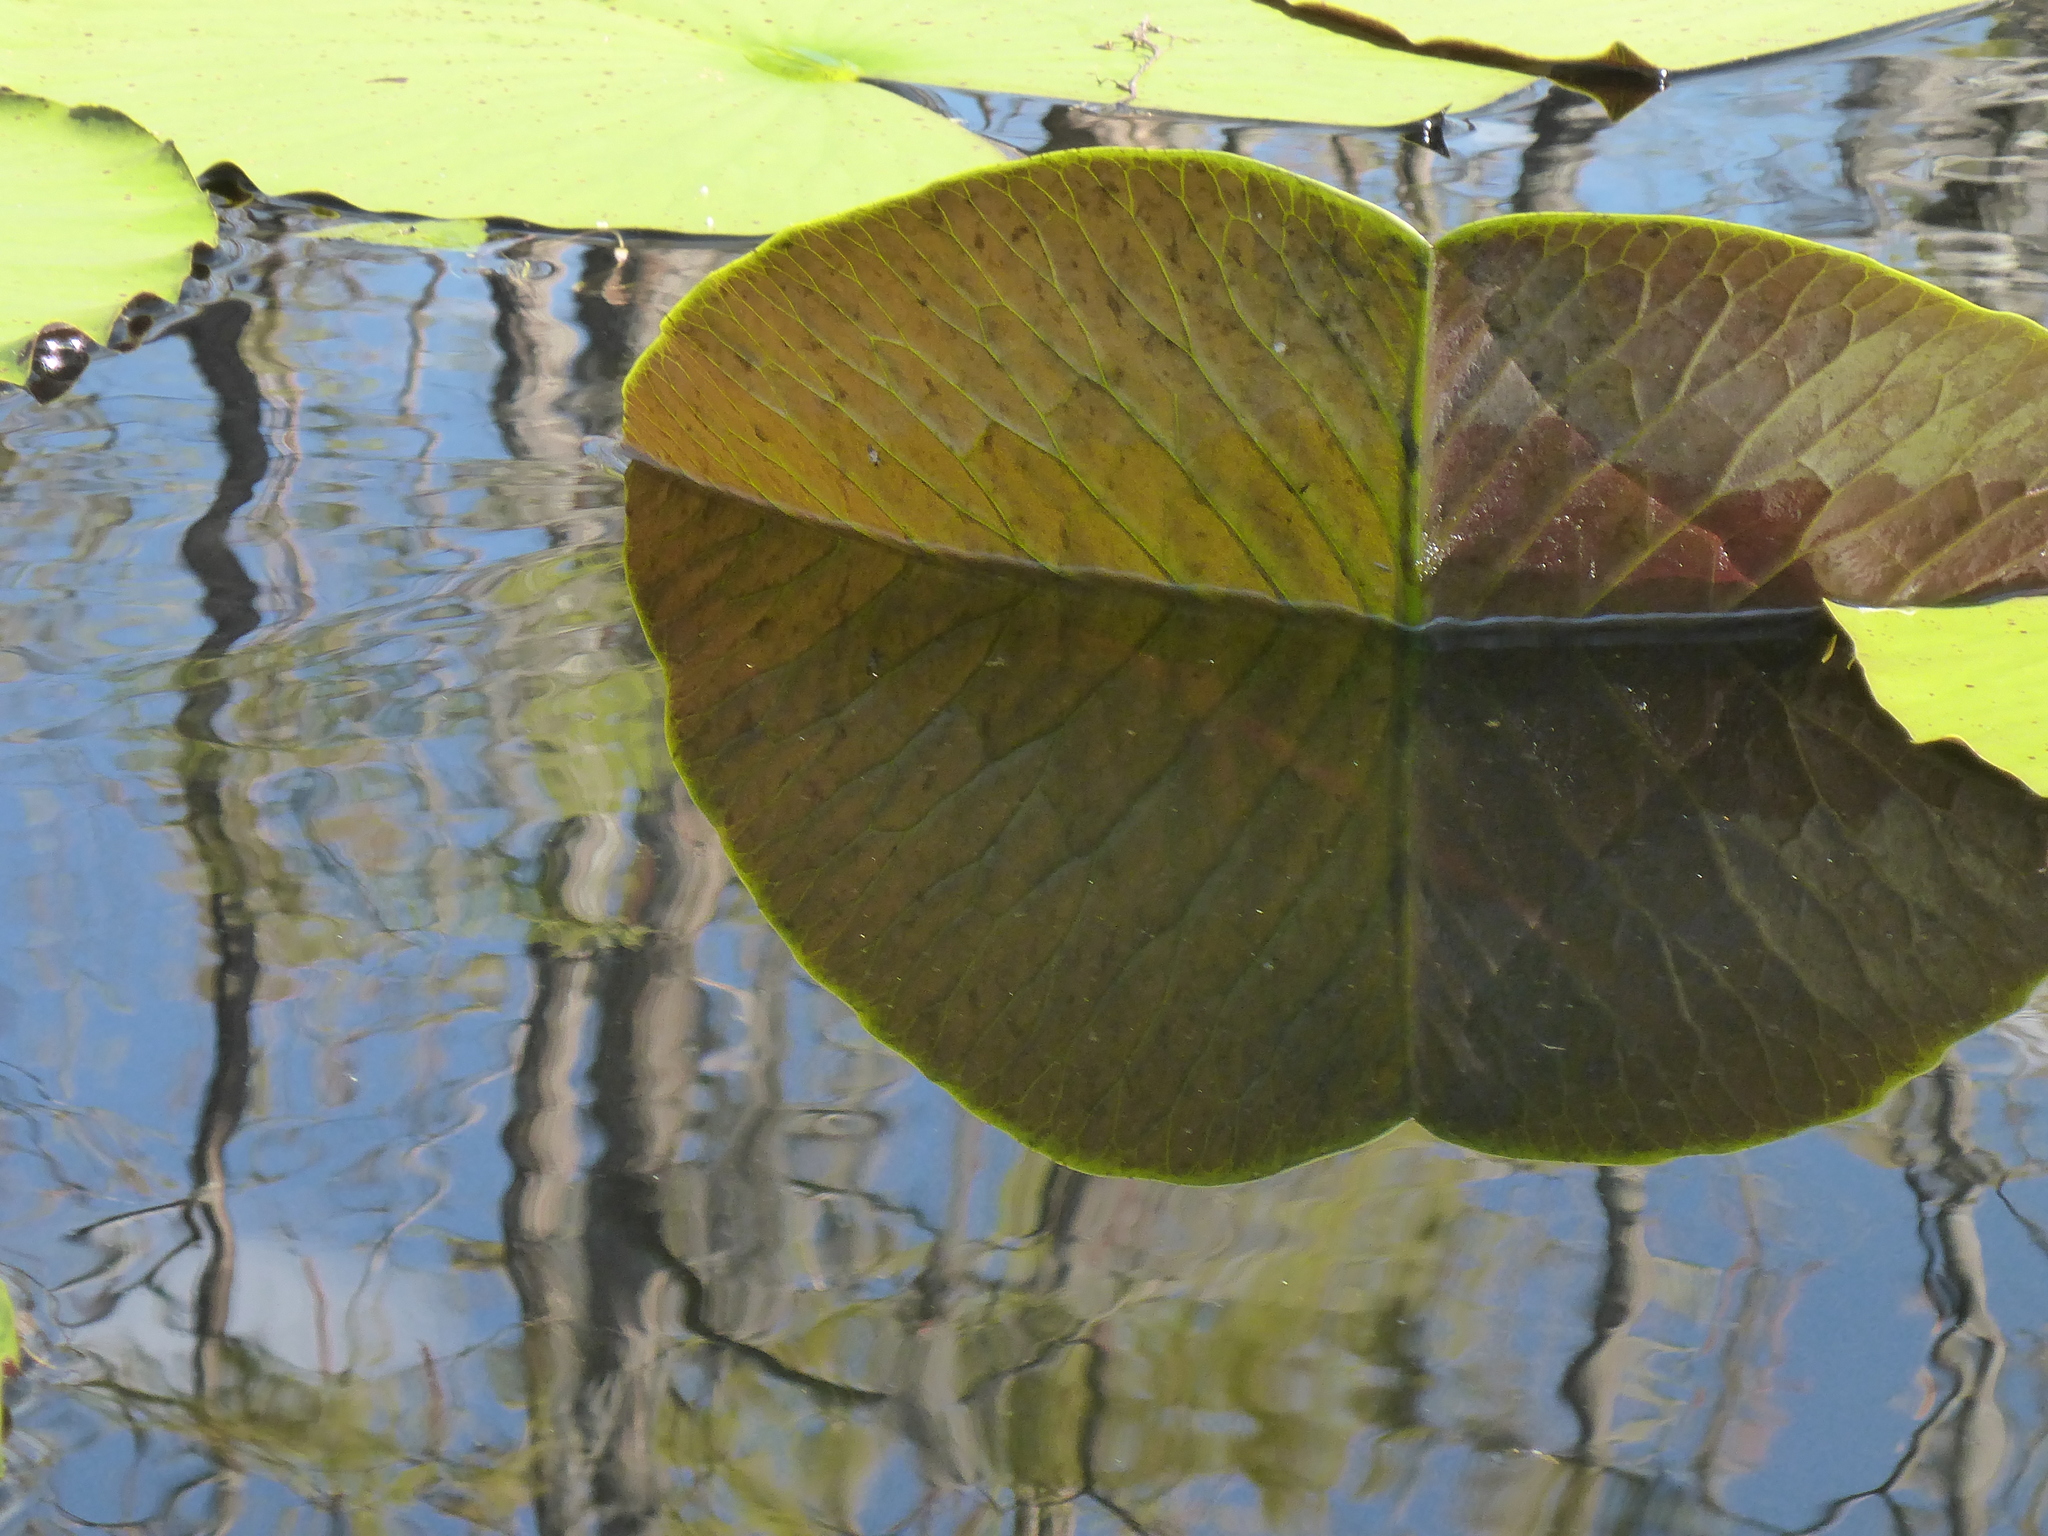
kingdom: Plantae
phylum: Tracheophyta
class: Magnoliopsida
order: Nymphaeales
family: Nymphaeaceae
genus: Nymphaea
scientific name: Nymphaea odorata
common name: Fragrant water-lily
